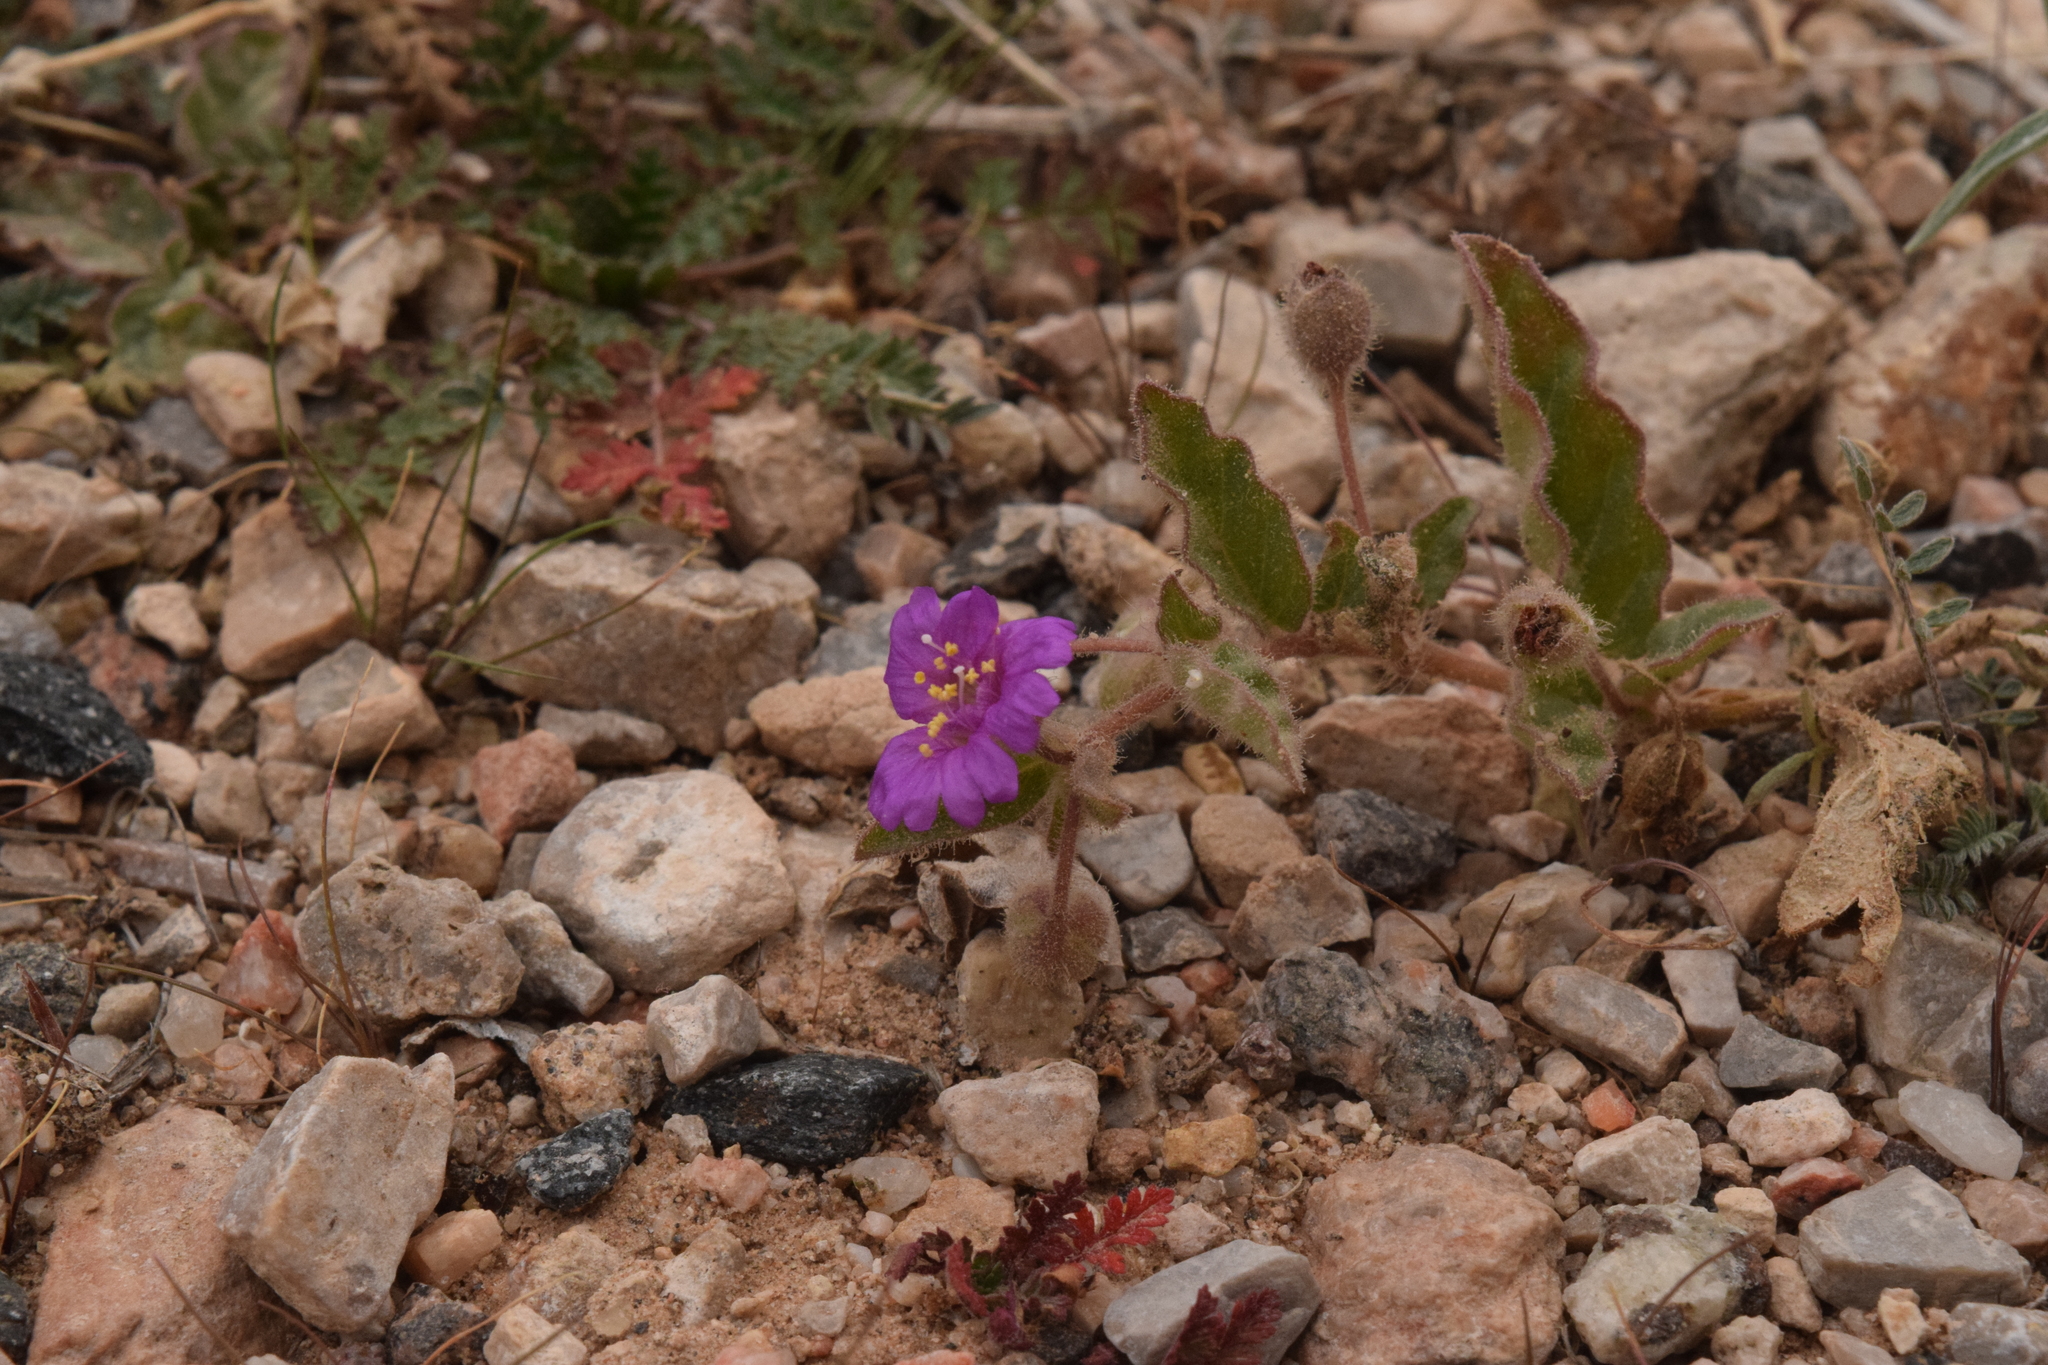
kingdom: Plantae
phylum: Tracheophyta
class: Magnoliopsida
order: Caryophyllales
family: Nyctaginaceae
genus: Allionia
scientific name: Allionia incarnata
